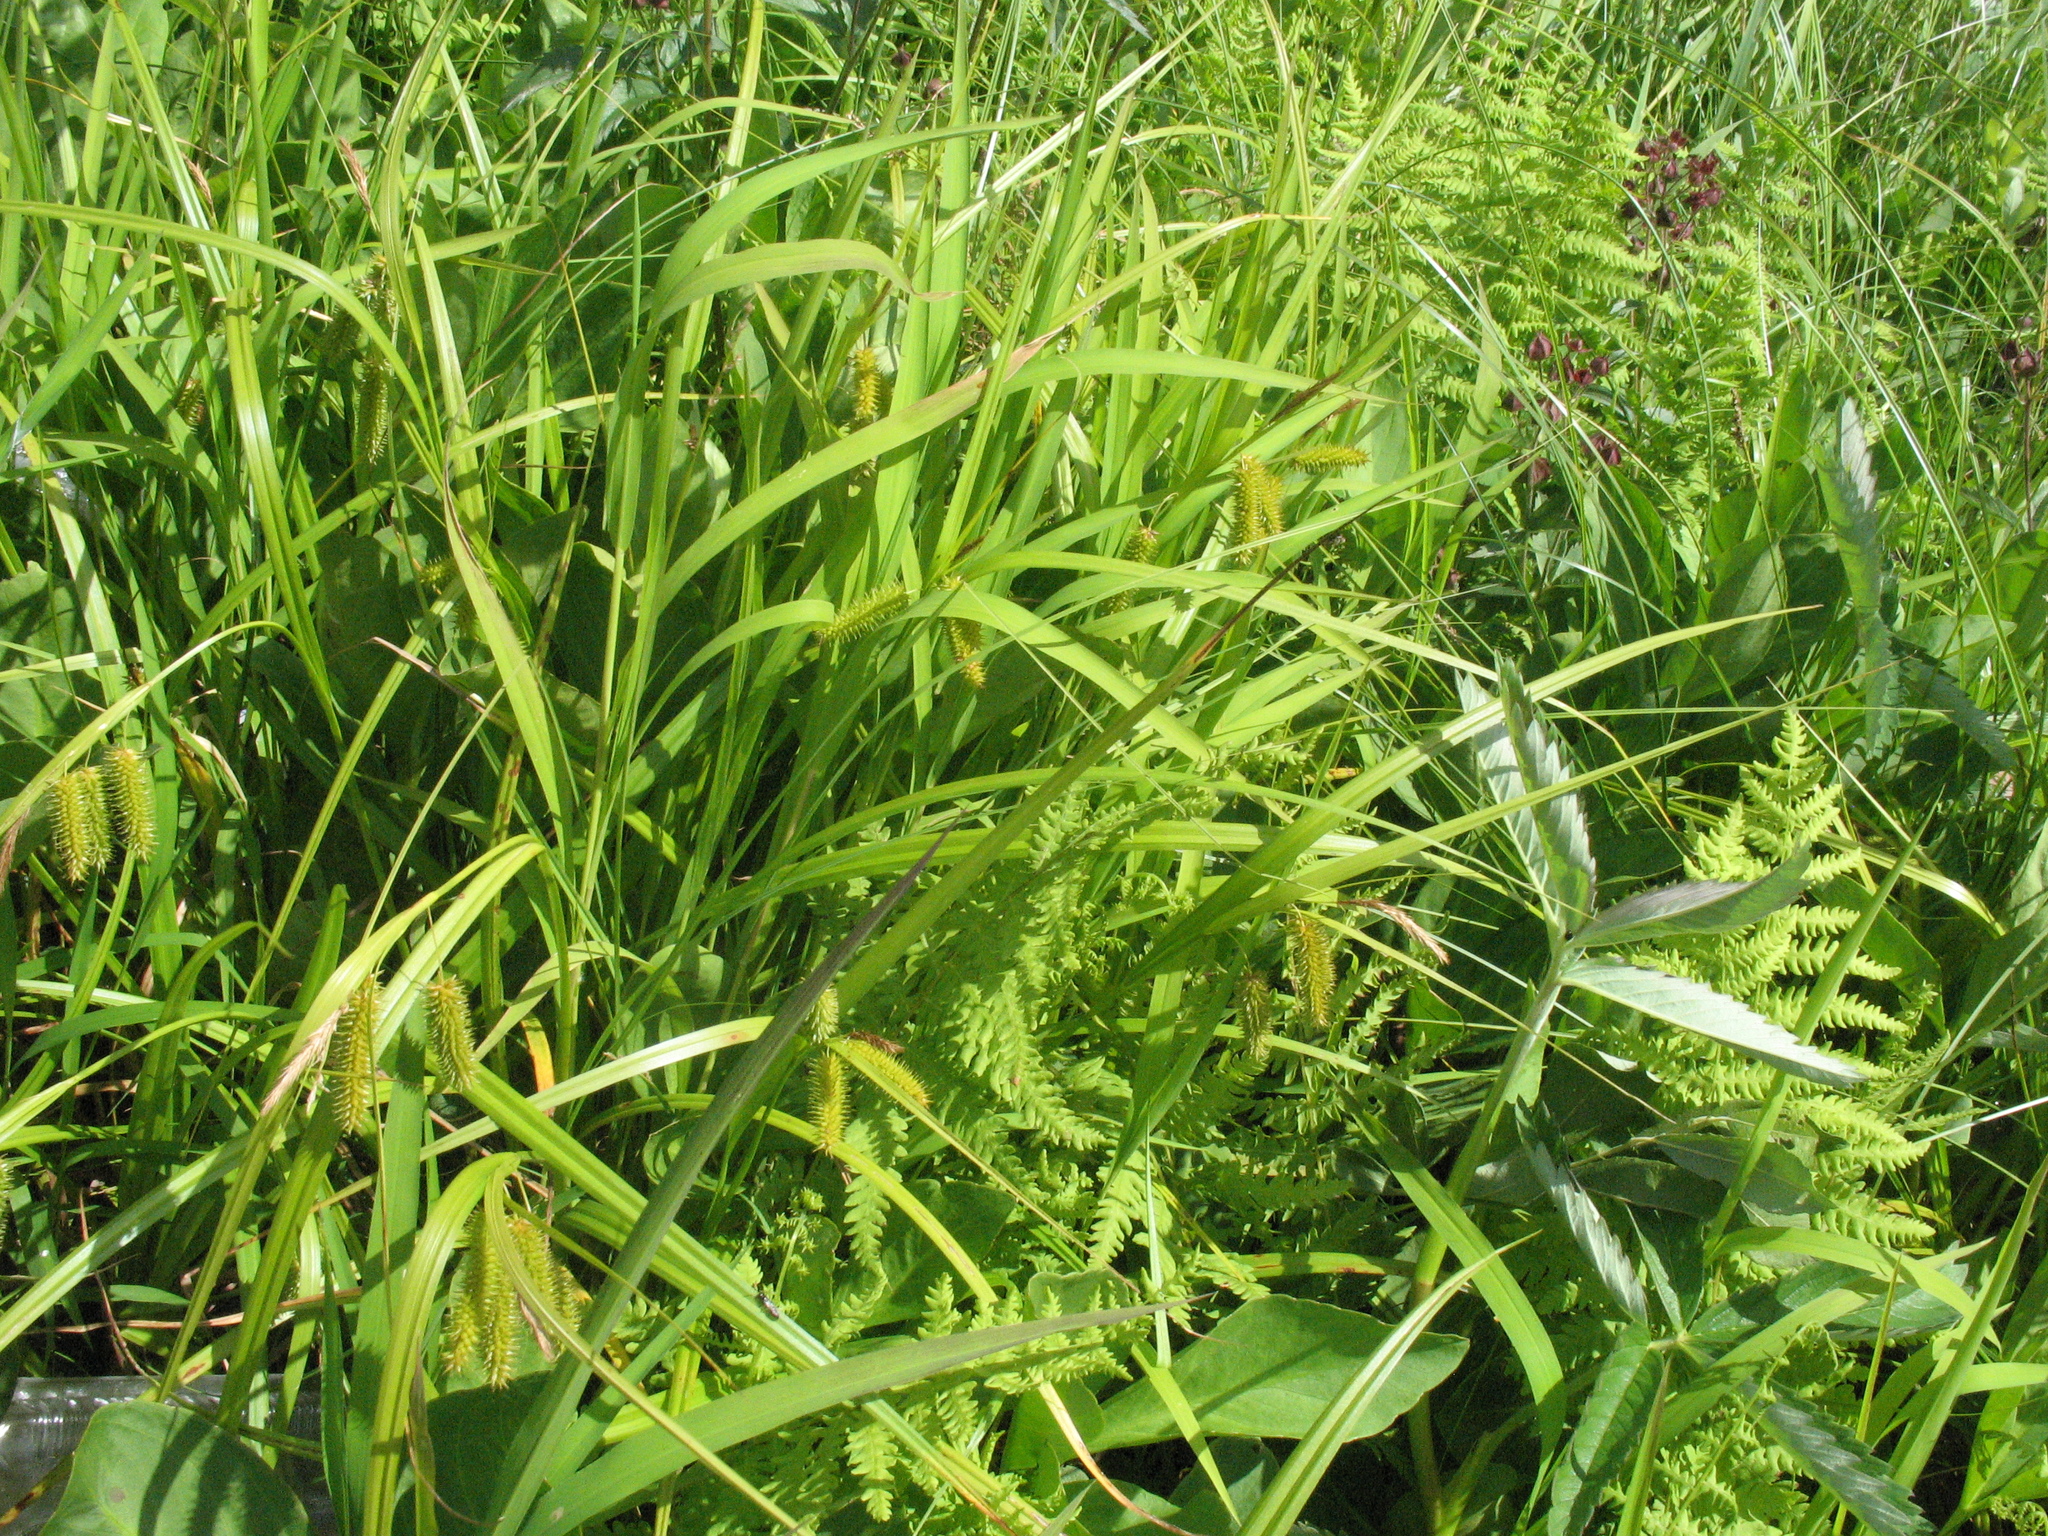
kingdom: Plantae
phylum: Tracheophyta
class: Liliopsida
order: Poales
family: Cyperaceae
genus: Carex
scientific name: Carex pseudocyperus
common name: Cyperus sedge
